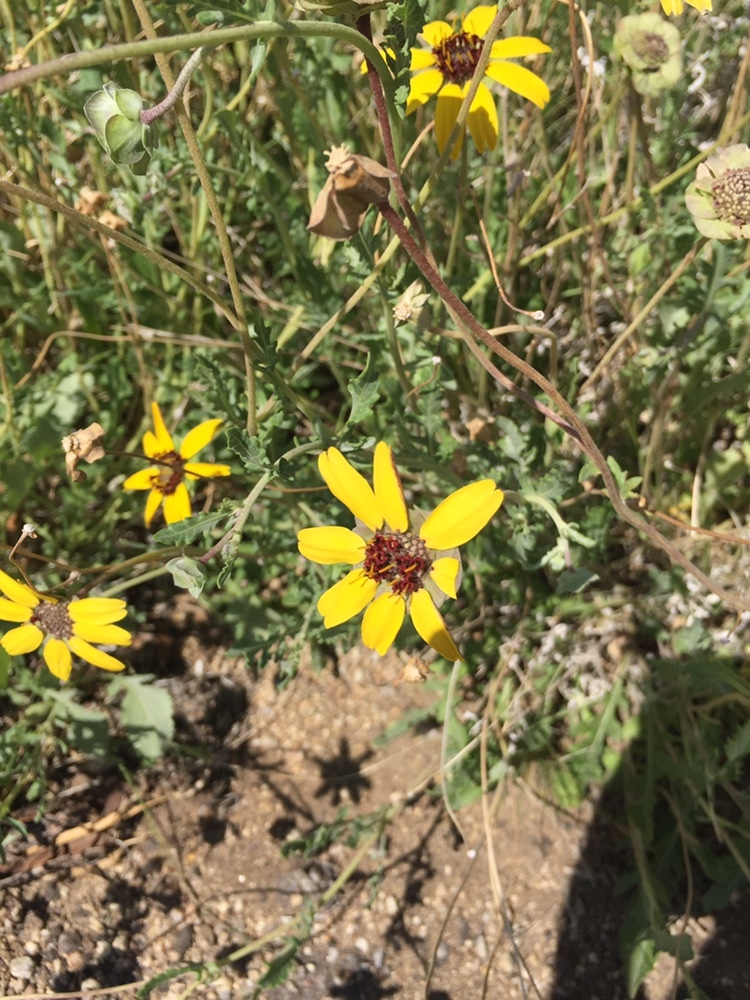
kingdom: Plantae
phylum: Tracheophyta
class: Magnoliopsida
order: Asterales
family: Asteraceae
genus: Berlandiera
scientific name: Berlandiera lyrata
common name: Chocolate-flower
